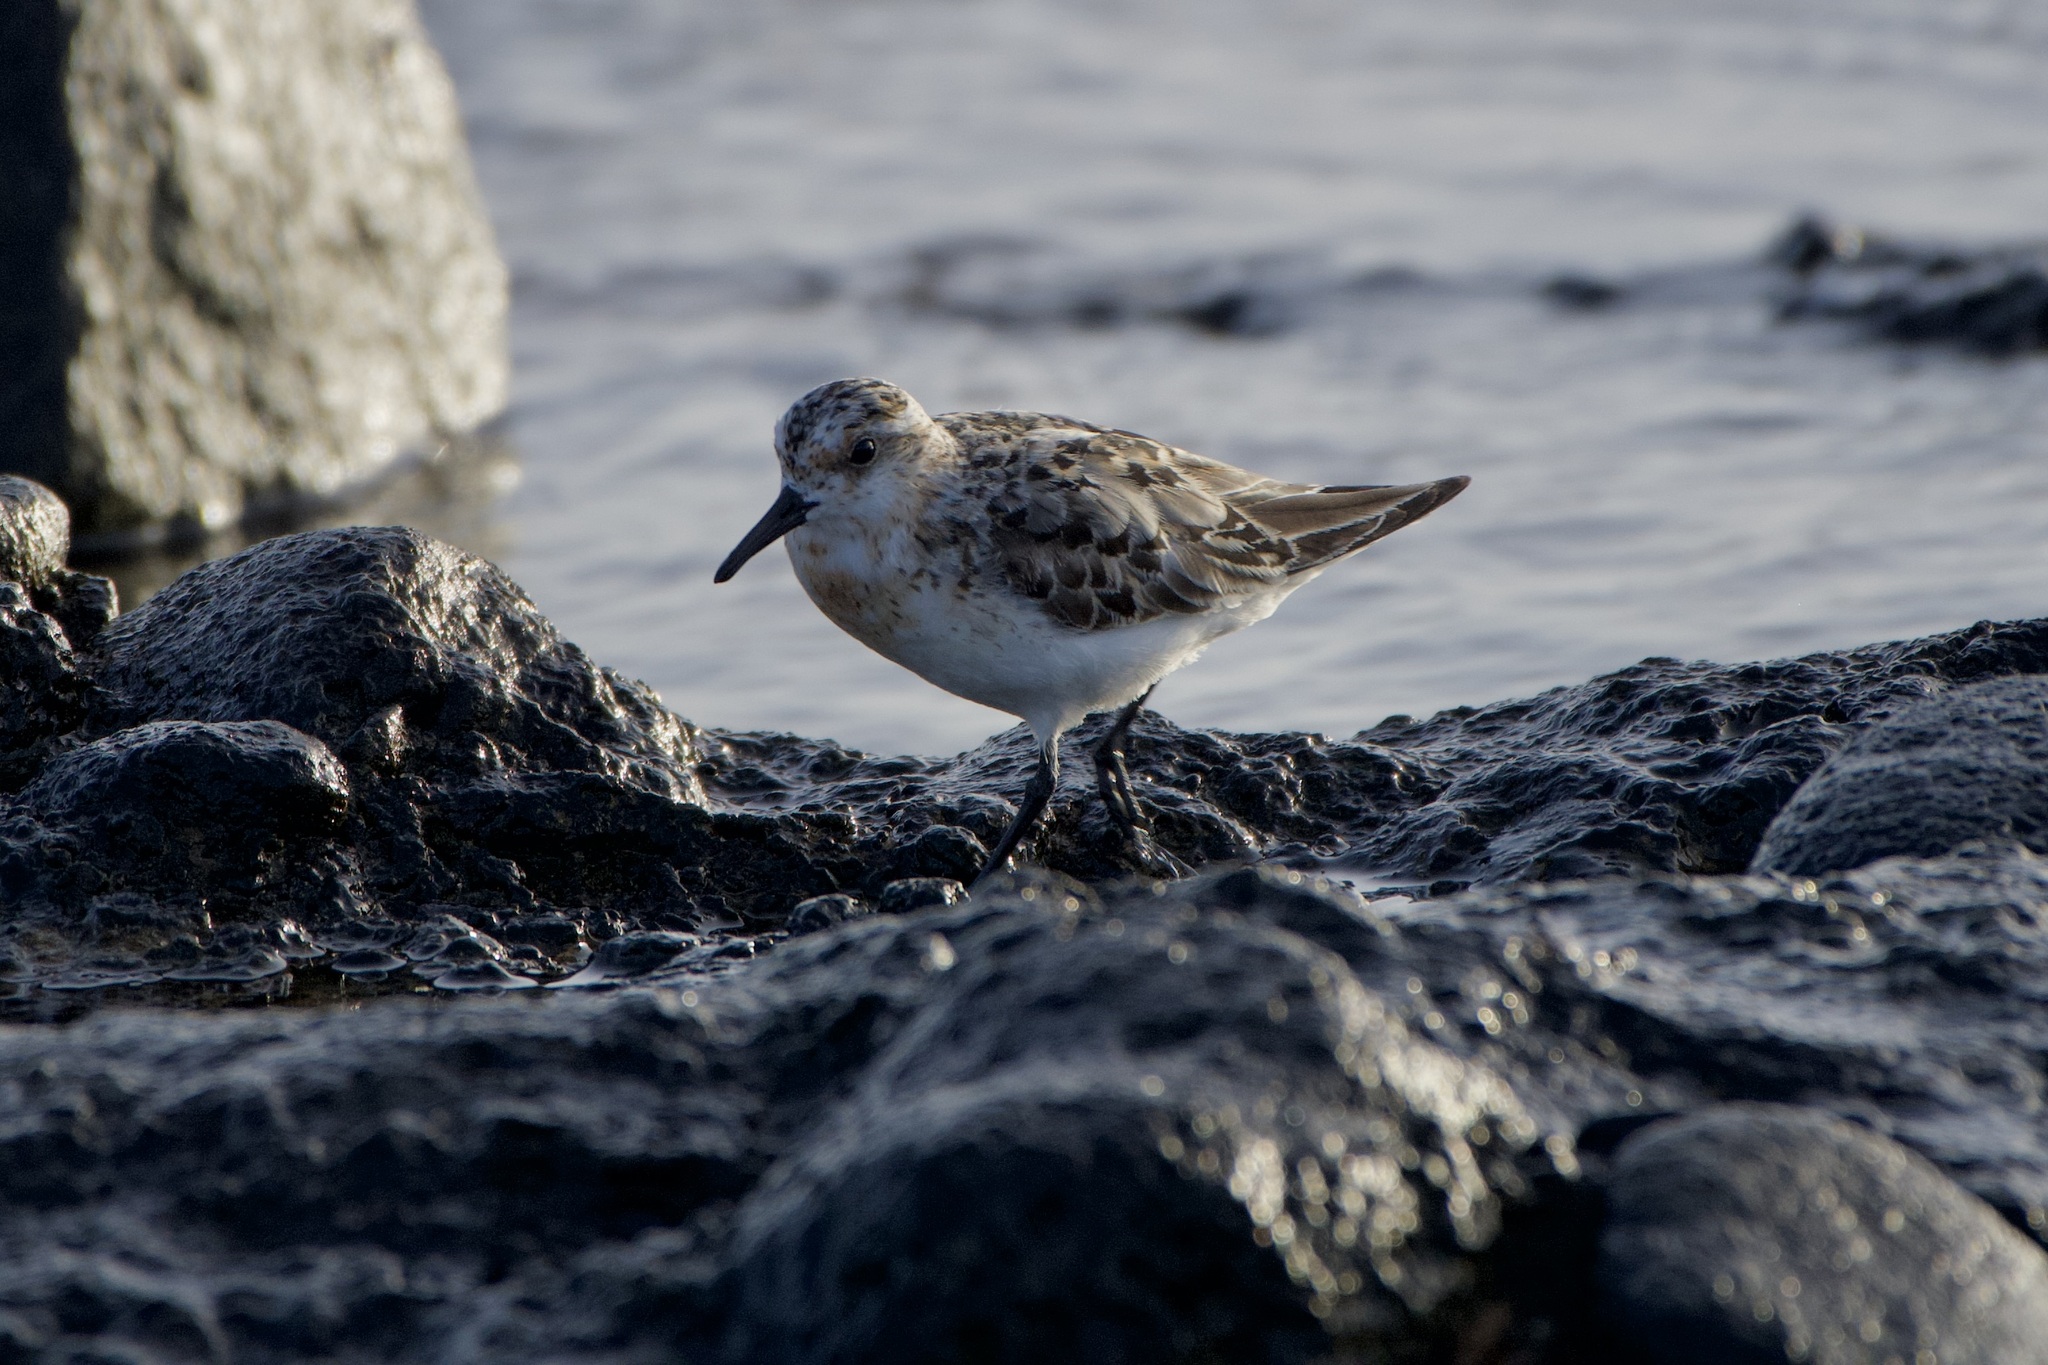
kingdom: Animalia
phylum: Chordata
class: Aves
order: Charadriiformes
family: Scolopacidae
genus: Calidris
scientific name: Calidris alba
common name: Sanderling
